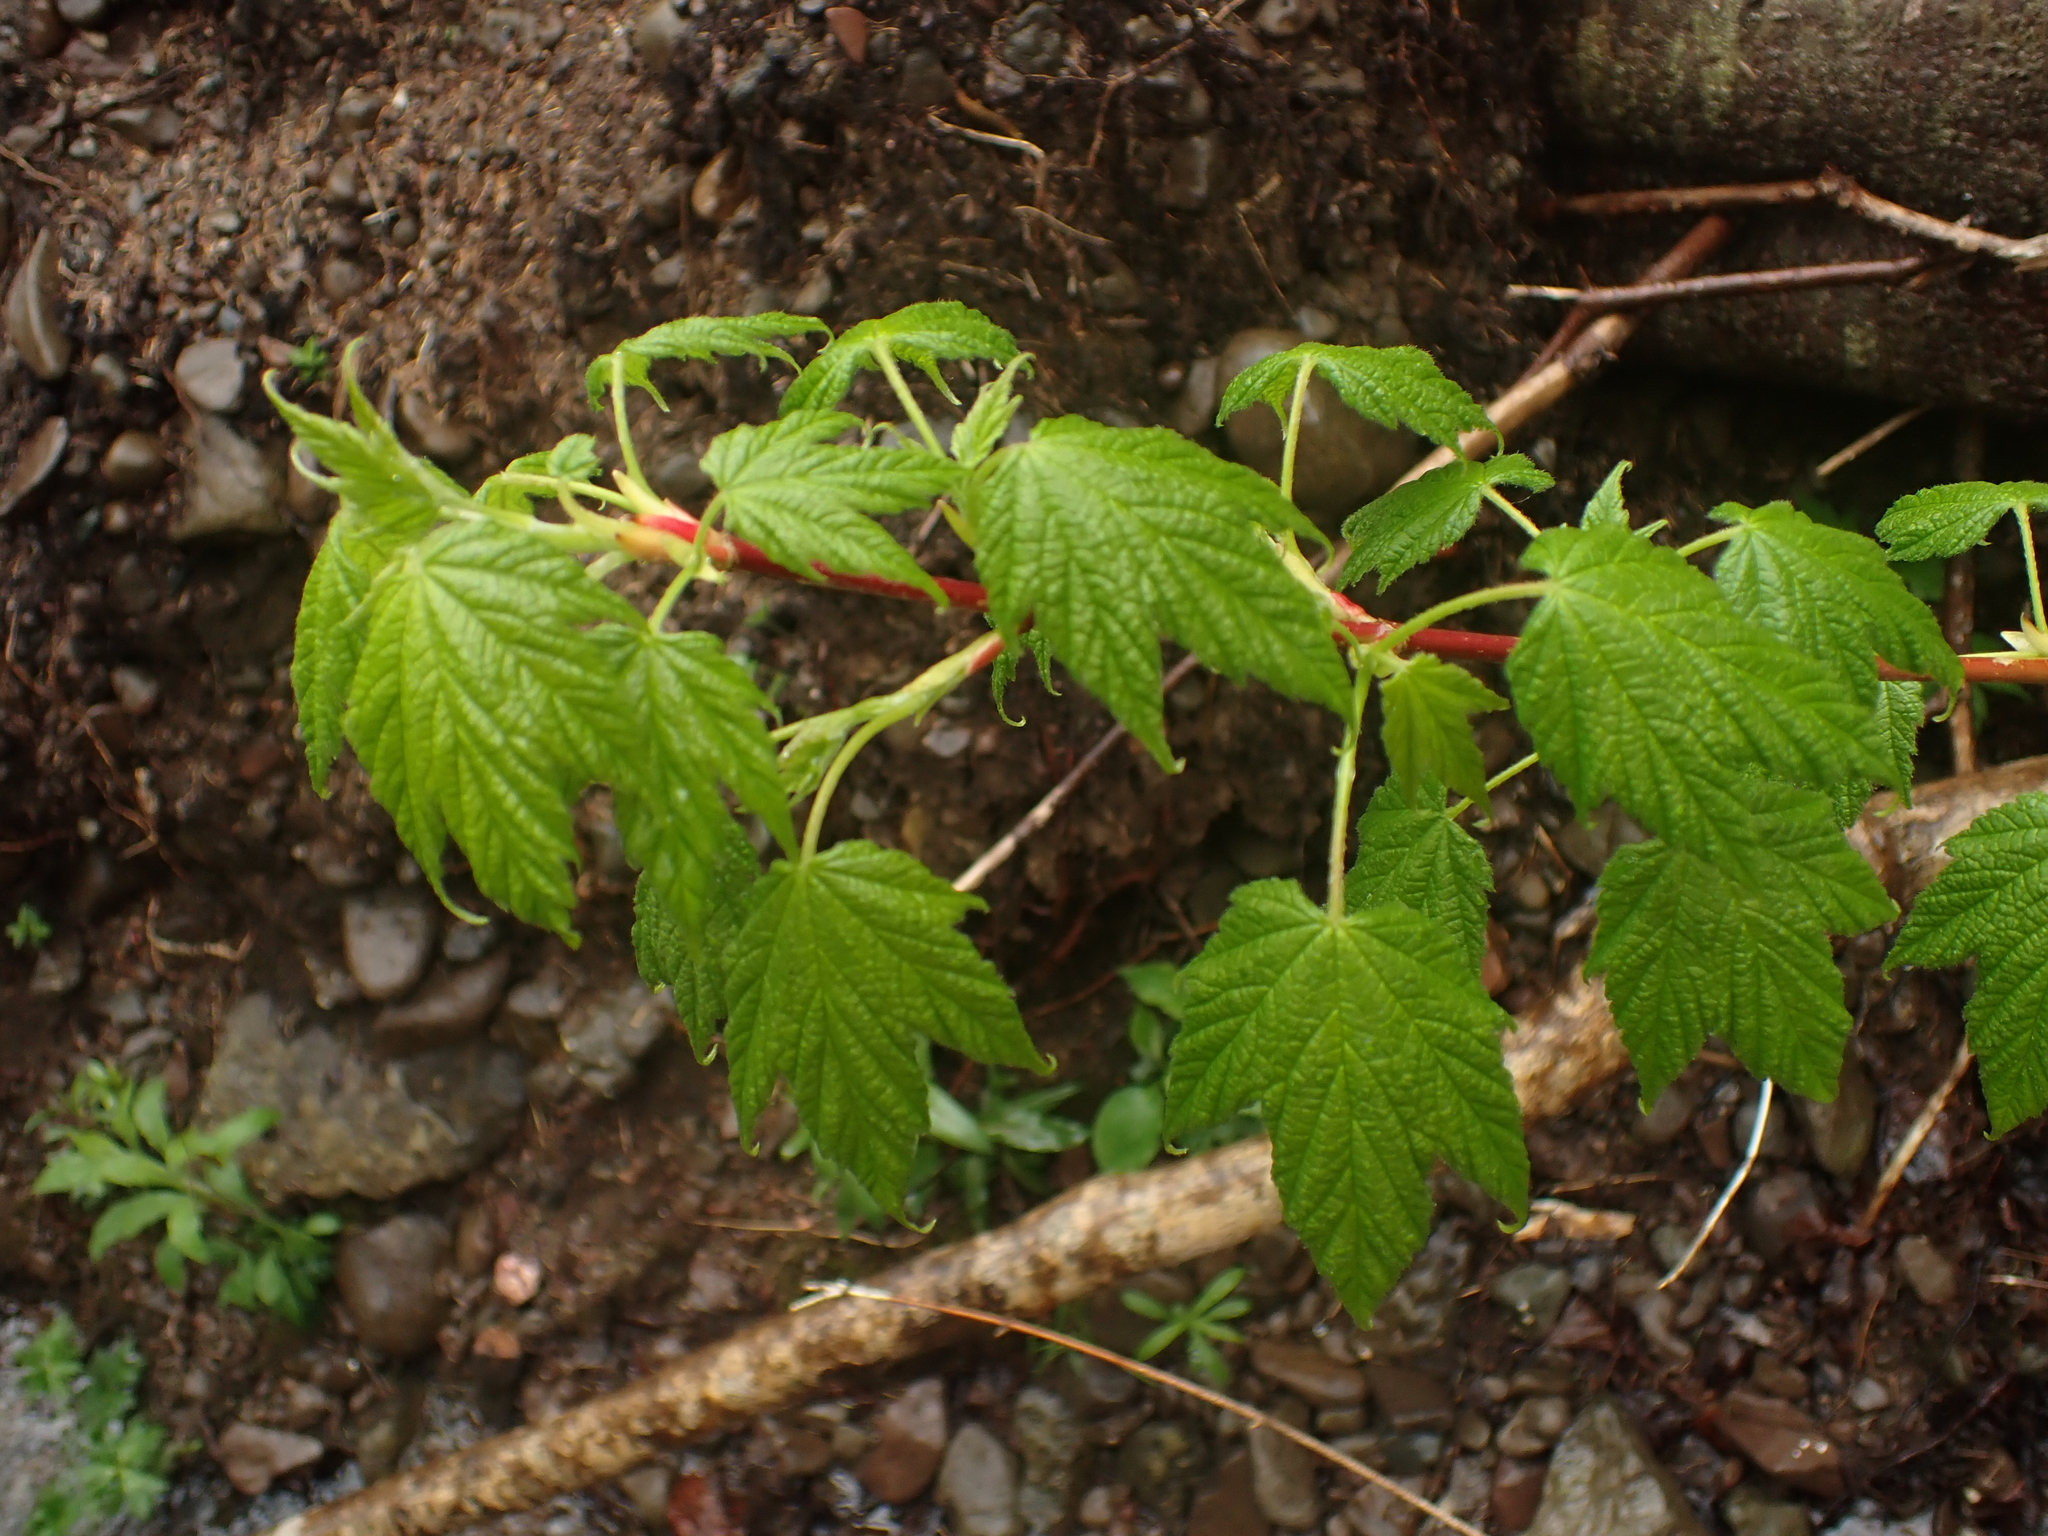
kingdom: Plantae
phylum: Tracheophyta
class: Magnoliopsida
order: Sapindales
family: Sapindaceae
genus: Acer
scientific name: Acer spicatum
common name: Mountain maple
